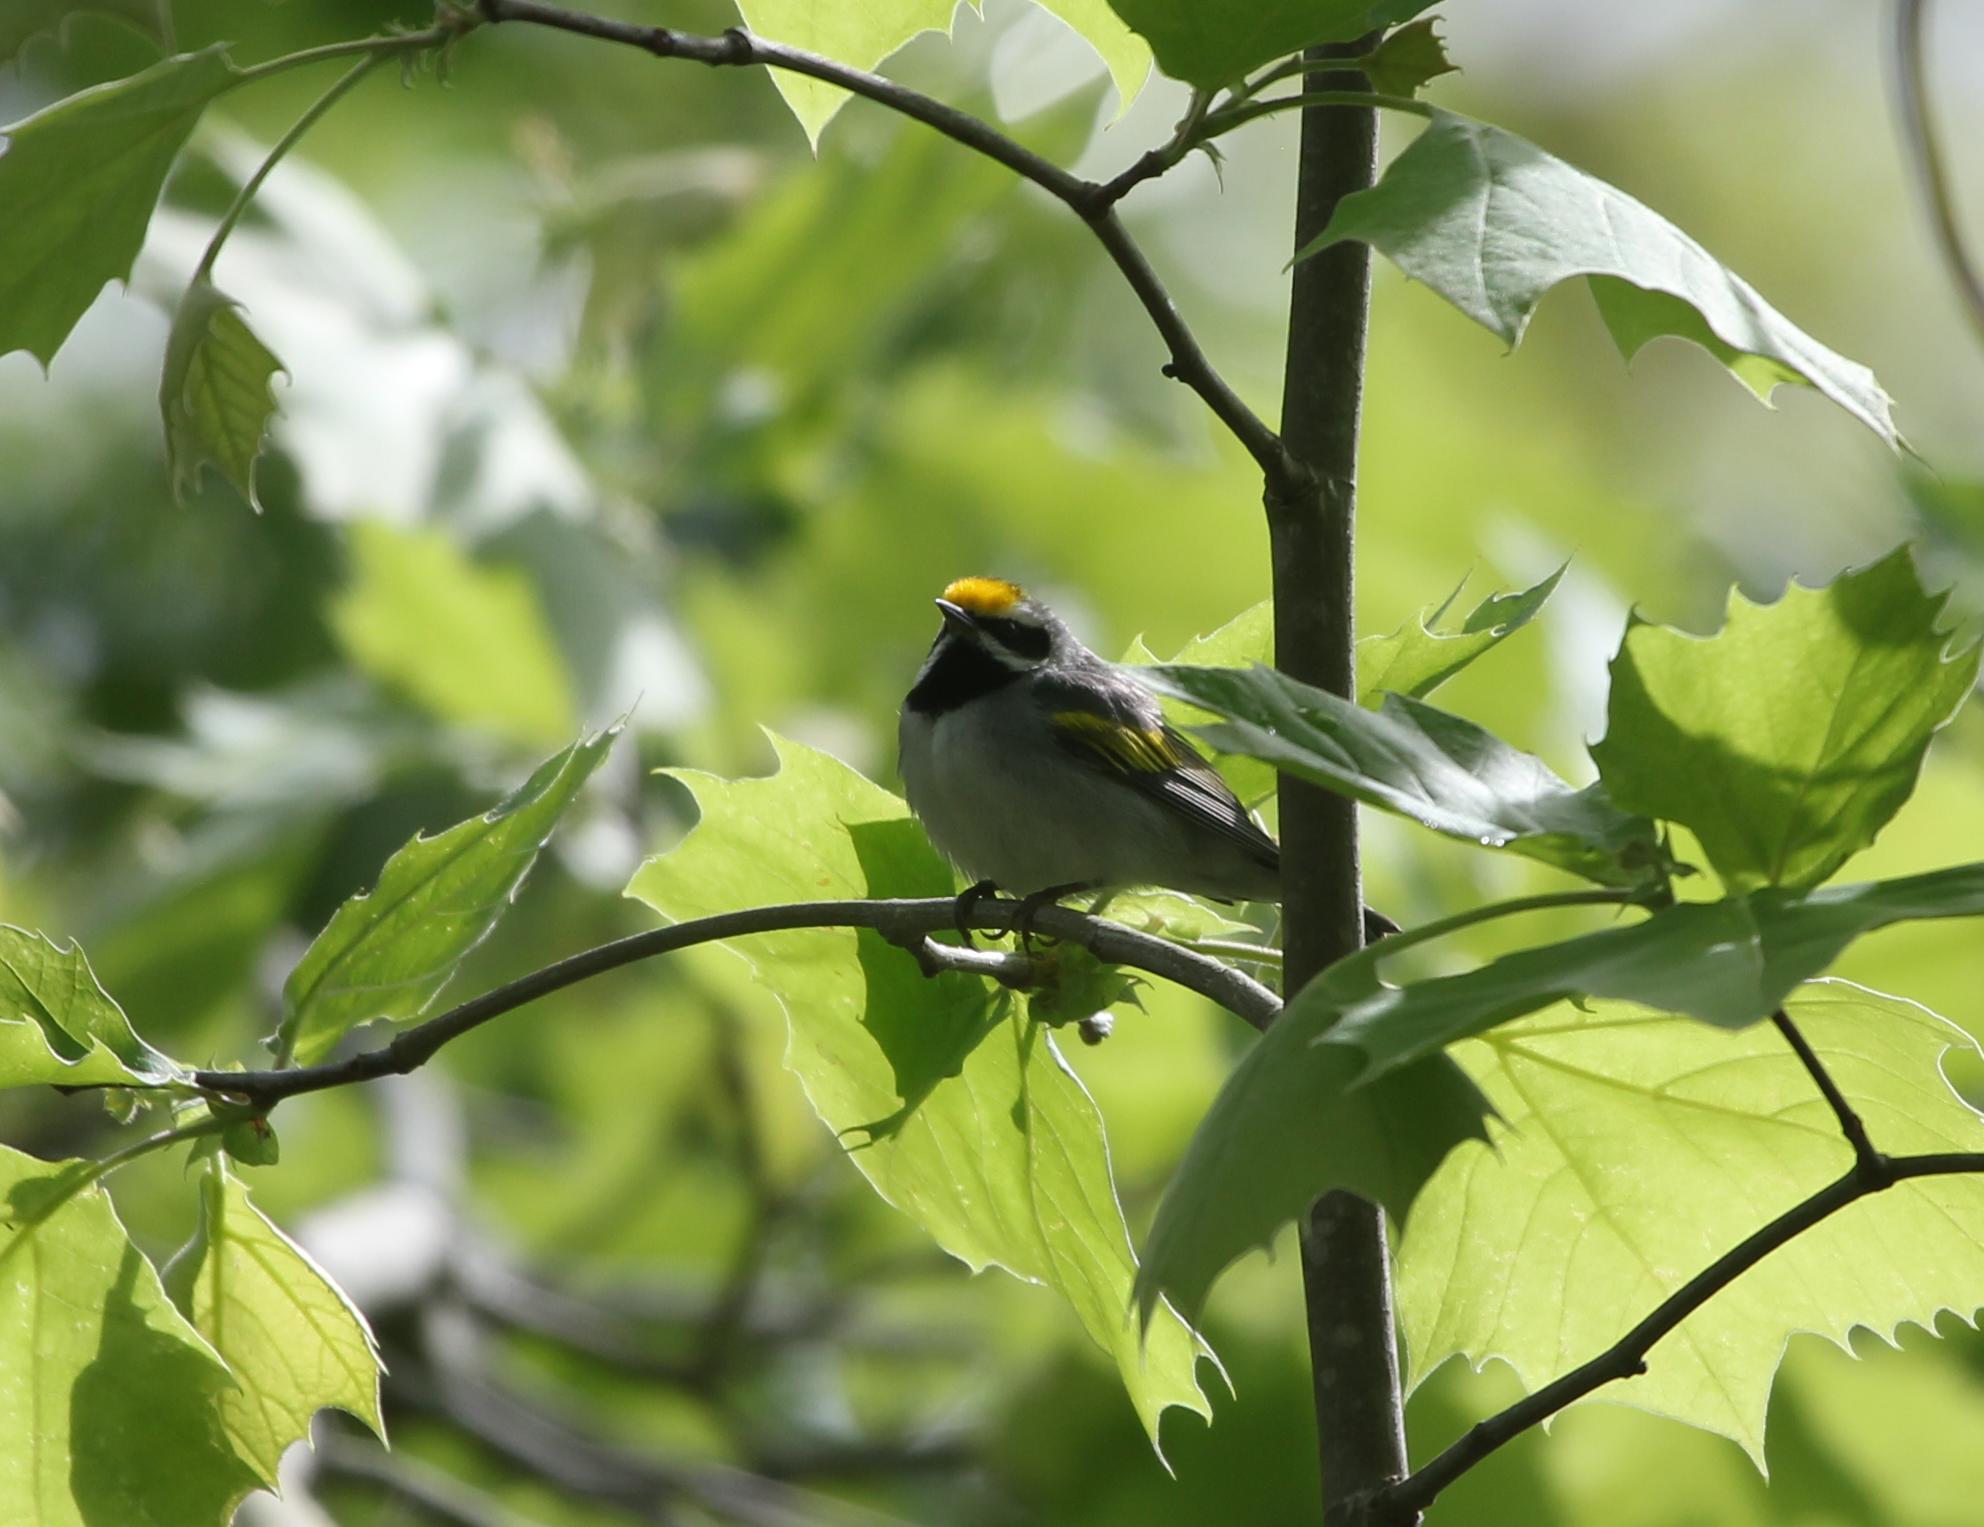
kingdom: Animalia
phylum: Chordata
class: Aves
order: Passeriformes
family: Parulidae
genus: Vermivora
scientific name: Vermivora chrysoptera
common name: Golden-winged warbler
